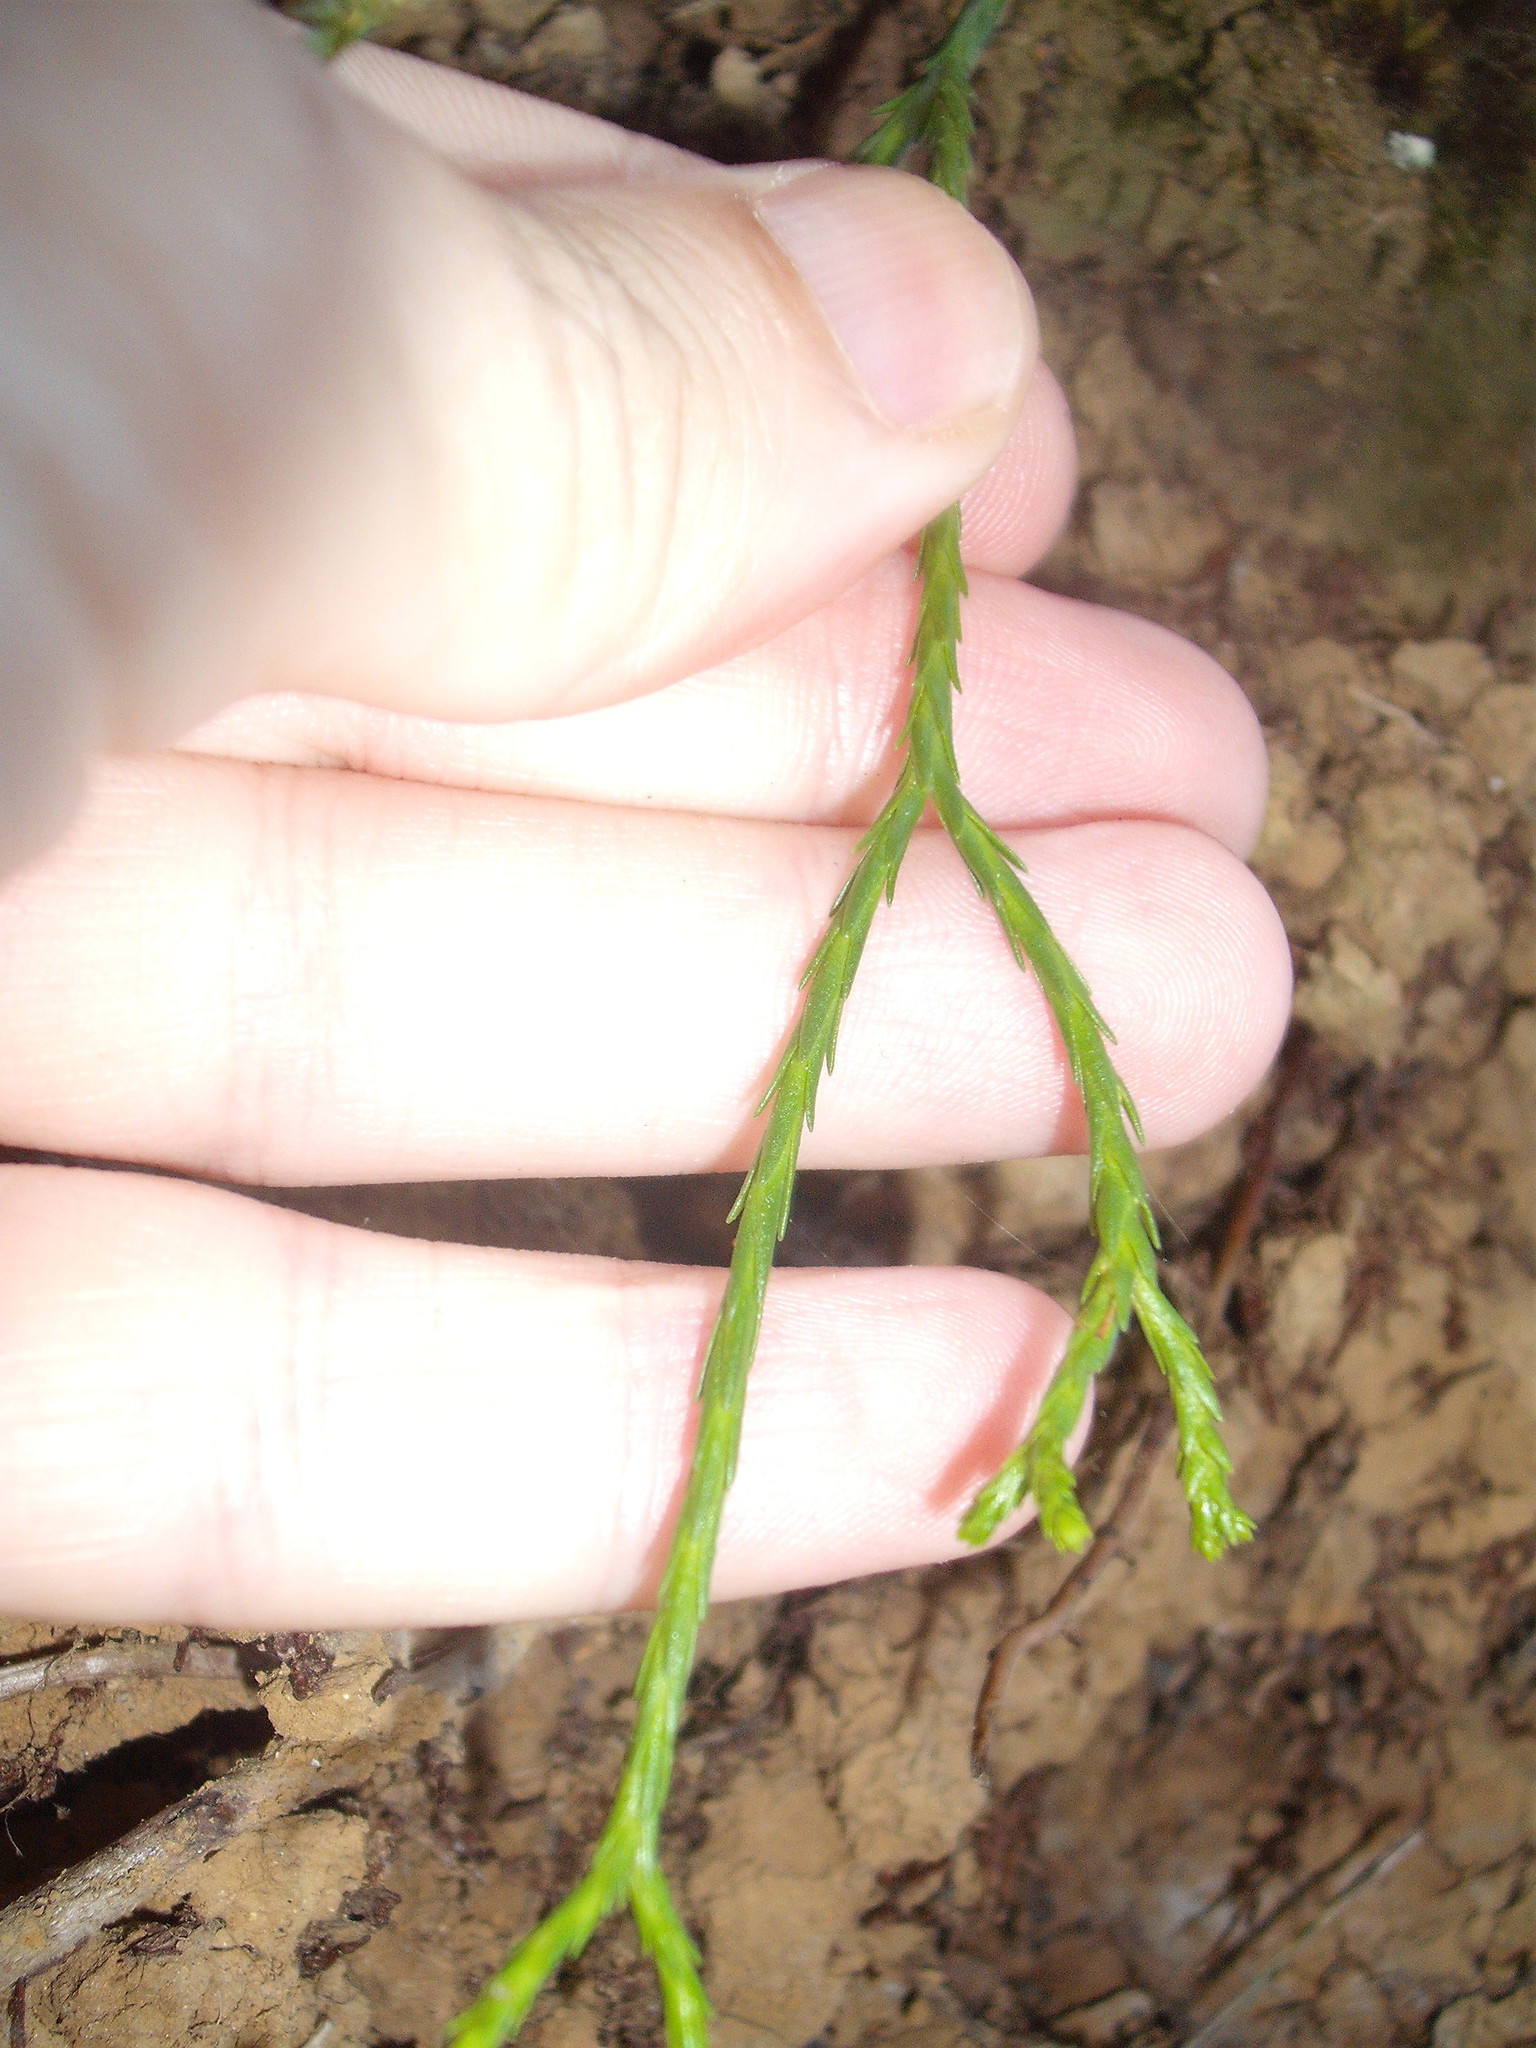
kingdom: Plantae
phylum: Tracheophyta
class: Lycopodiopsida
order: Lycopodiales
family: Lycopodiaceae
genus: Phlegmariurus
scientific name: Phlegmariurus billardierei
